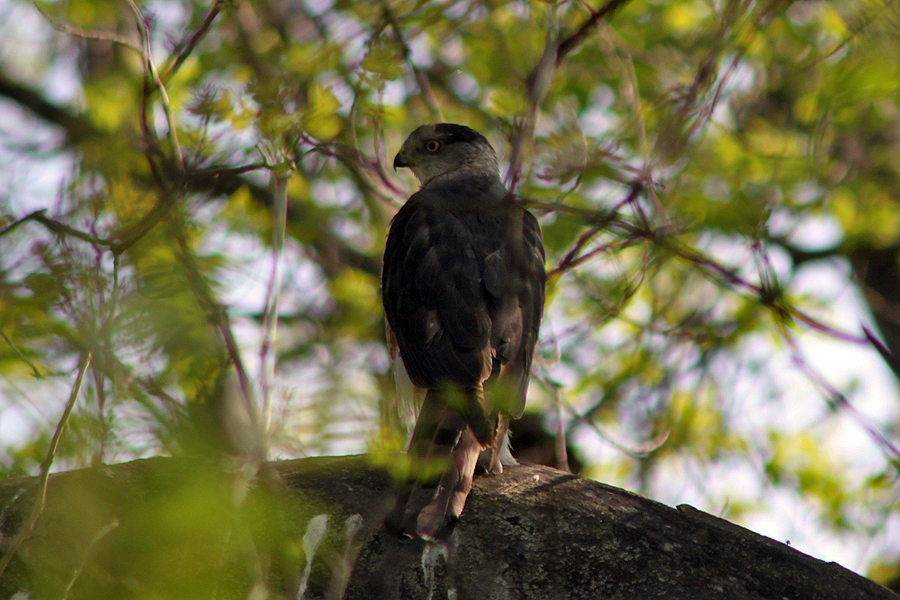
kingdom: Animalia
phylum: Chordata
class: Aves
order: Accipitriformes
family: Accipitridae
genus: Accipiter
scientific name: Accipiter cooperii
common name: Cooper's hawk
